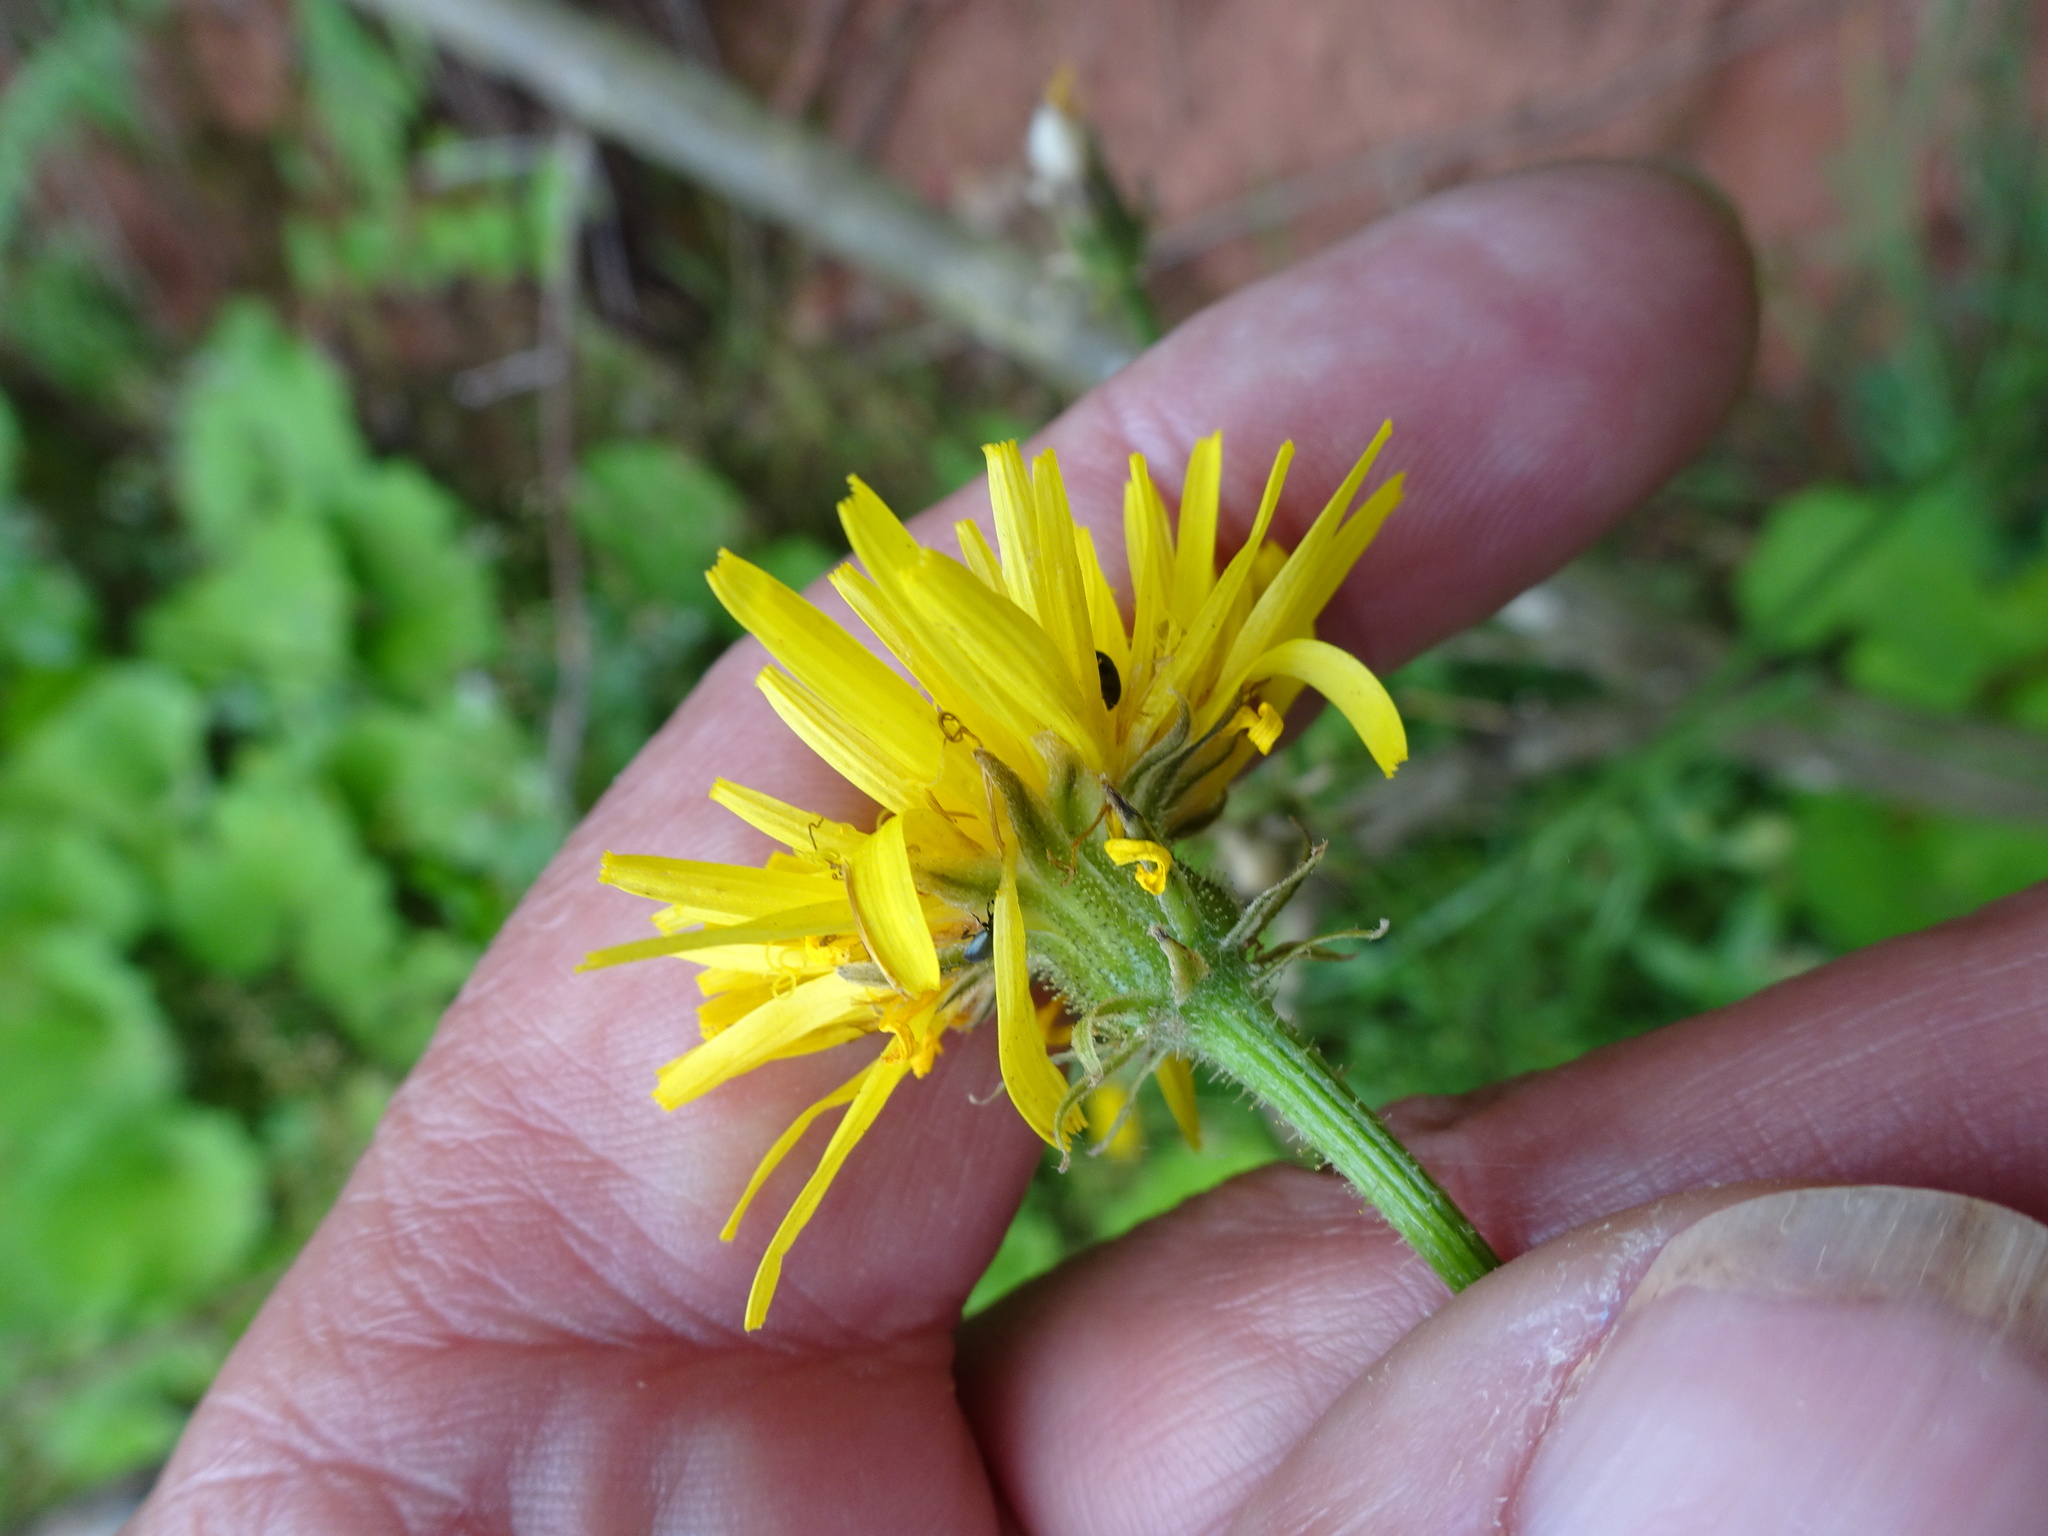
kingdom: Plantae
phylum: Tracheophyta
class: Magnoliopsida
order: Asterales
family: Asteraceae
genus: Crepis
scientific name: Crepis biennis
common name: Rough hawk's-beard
